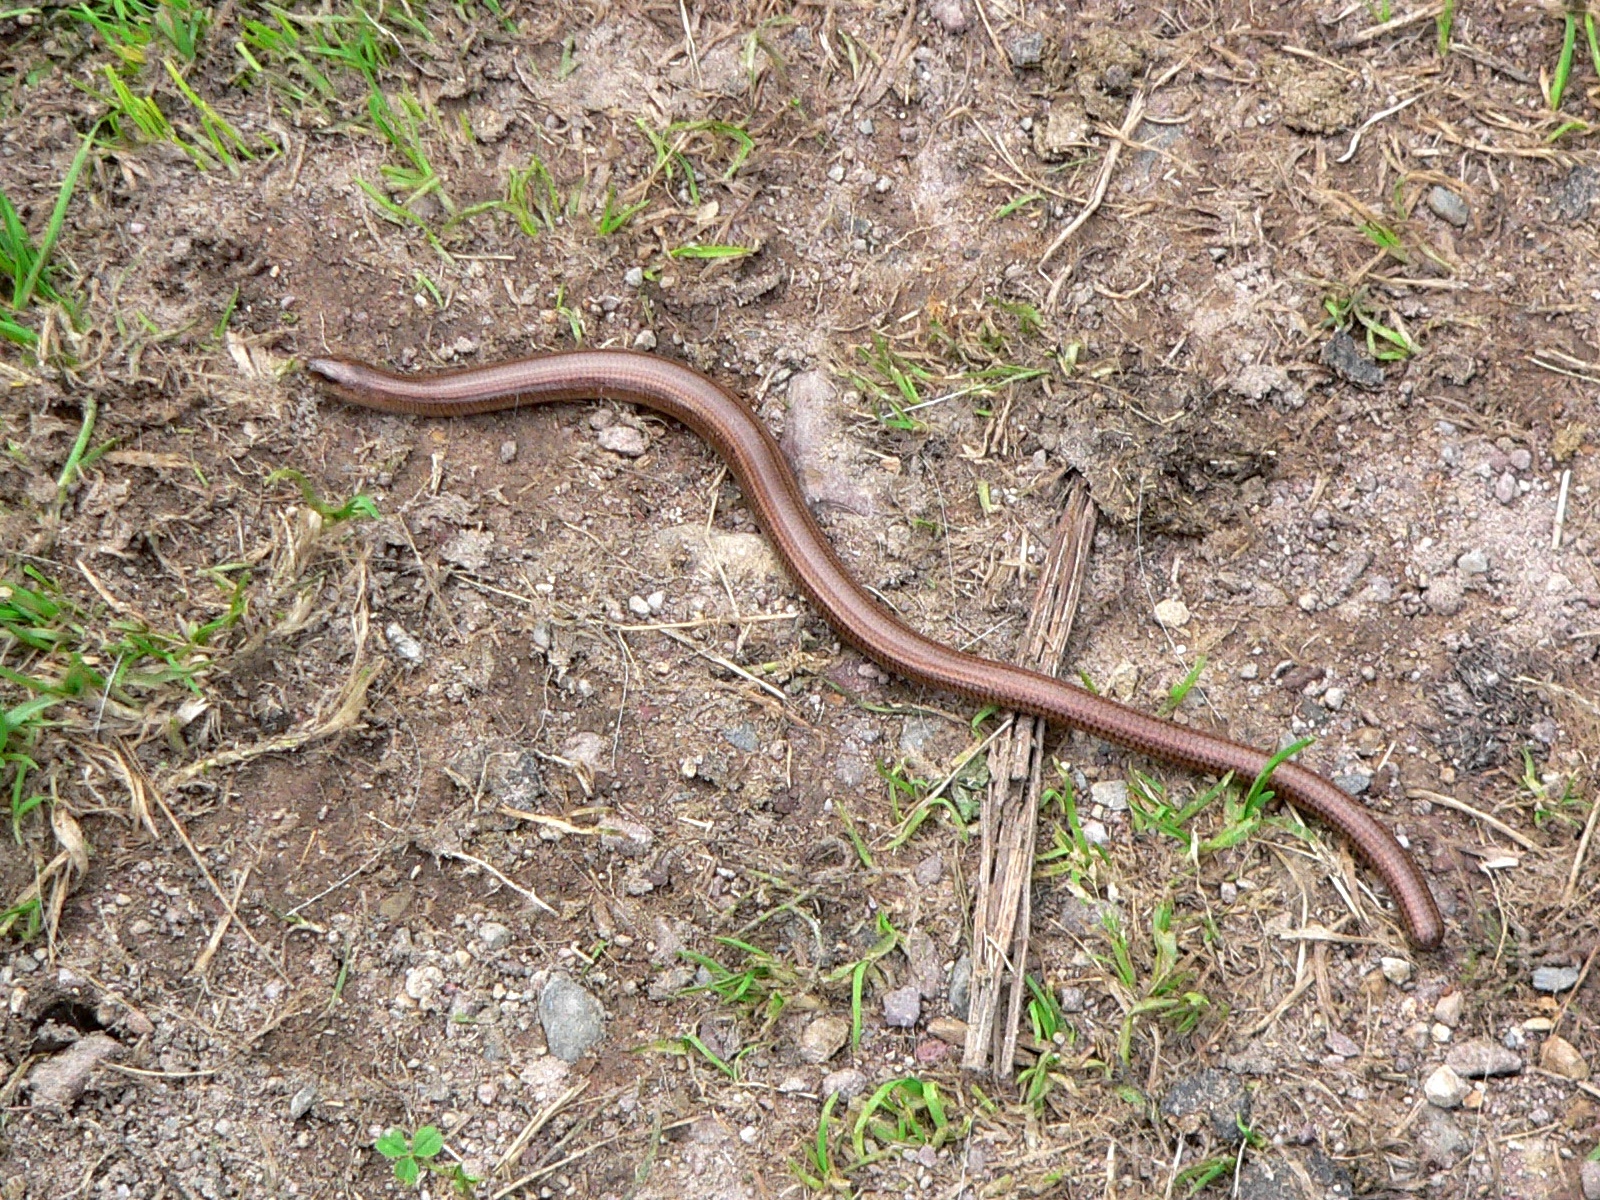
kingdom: Animalia
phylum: Chordata
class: Squamata
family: Anguidae
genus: Anguis
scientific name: Anguis veronensis
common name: Italian slow worm
